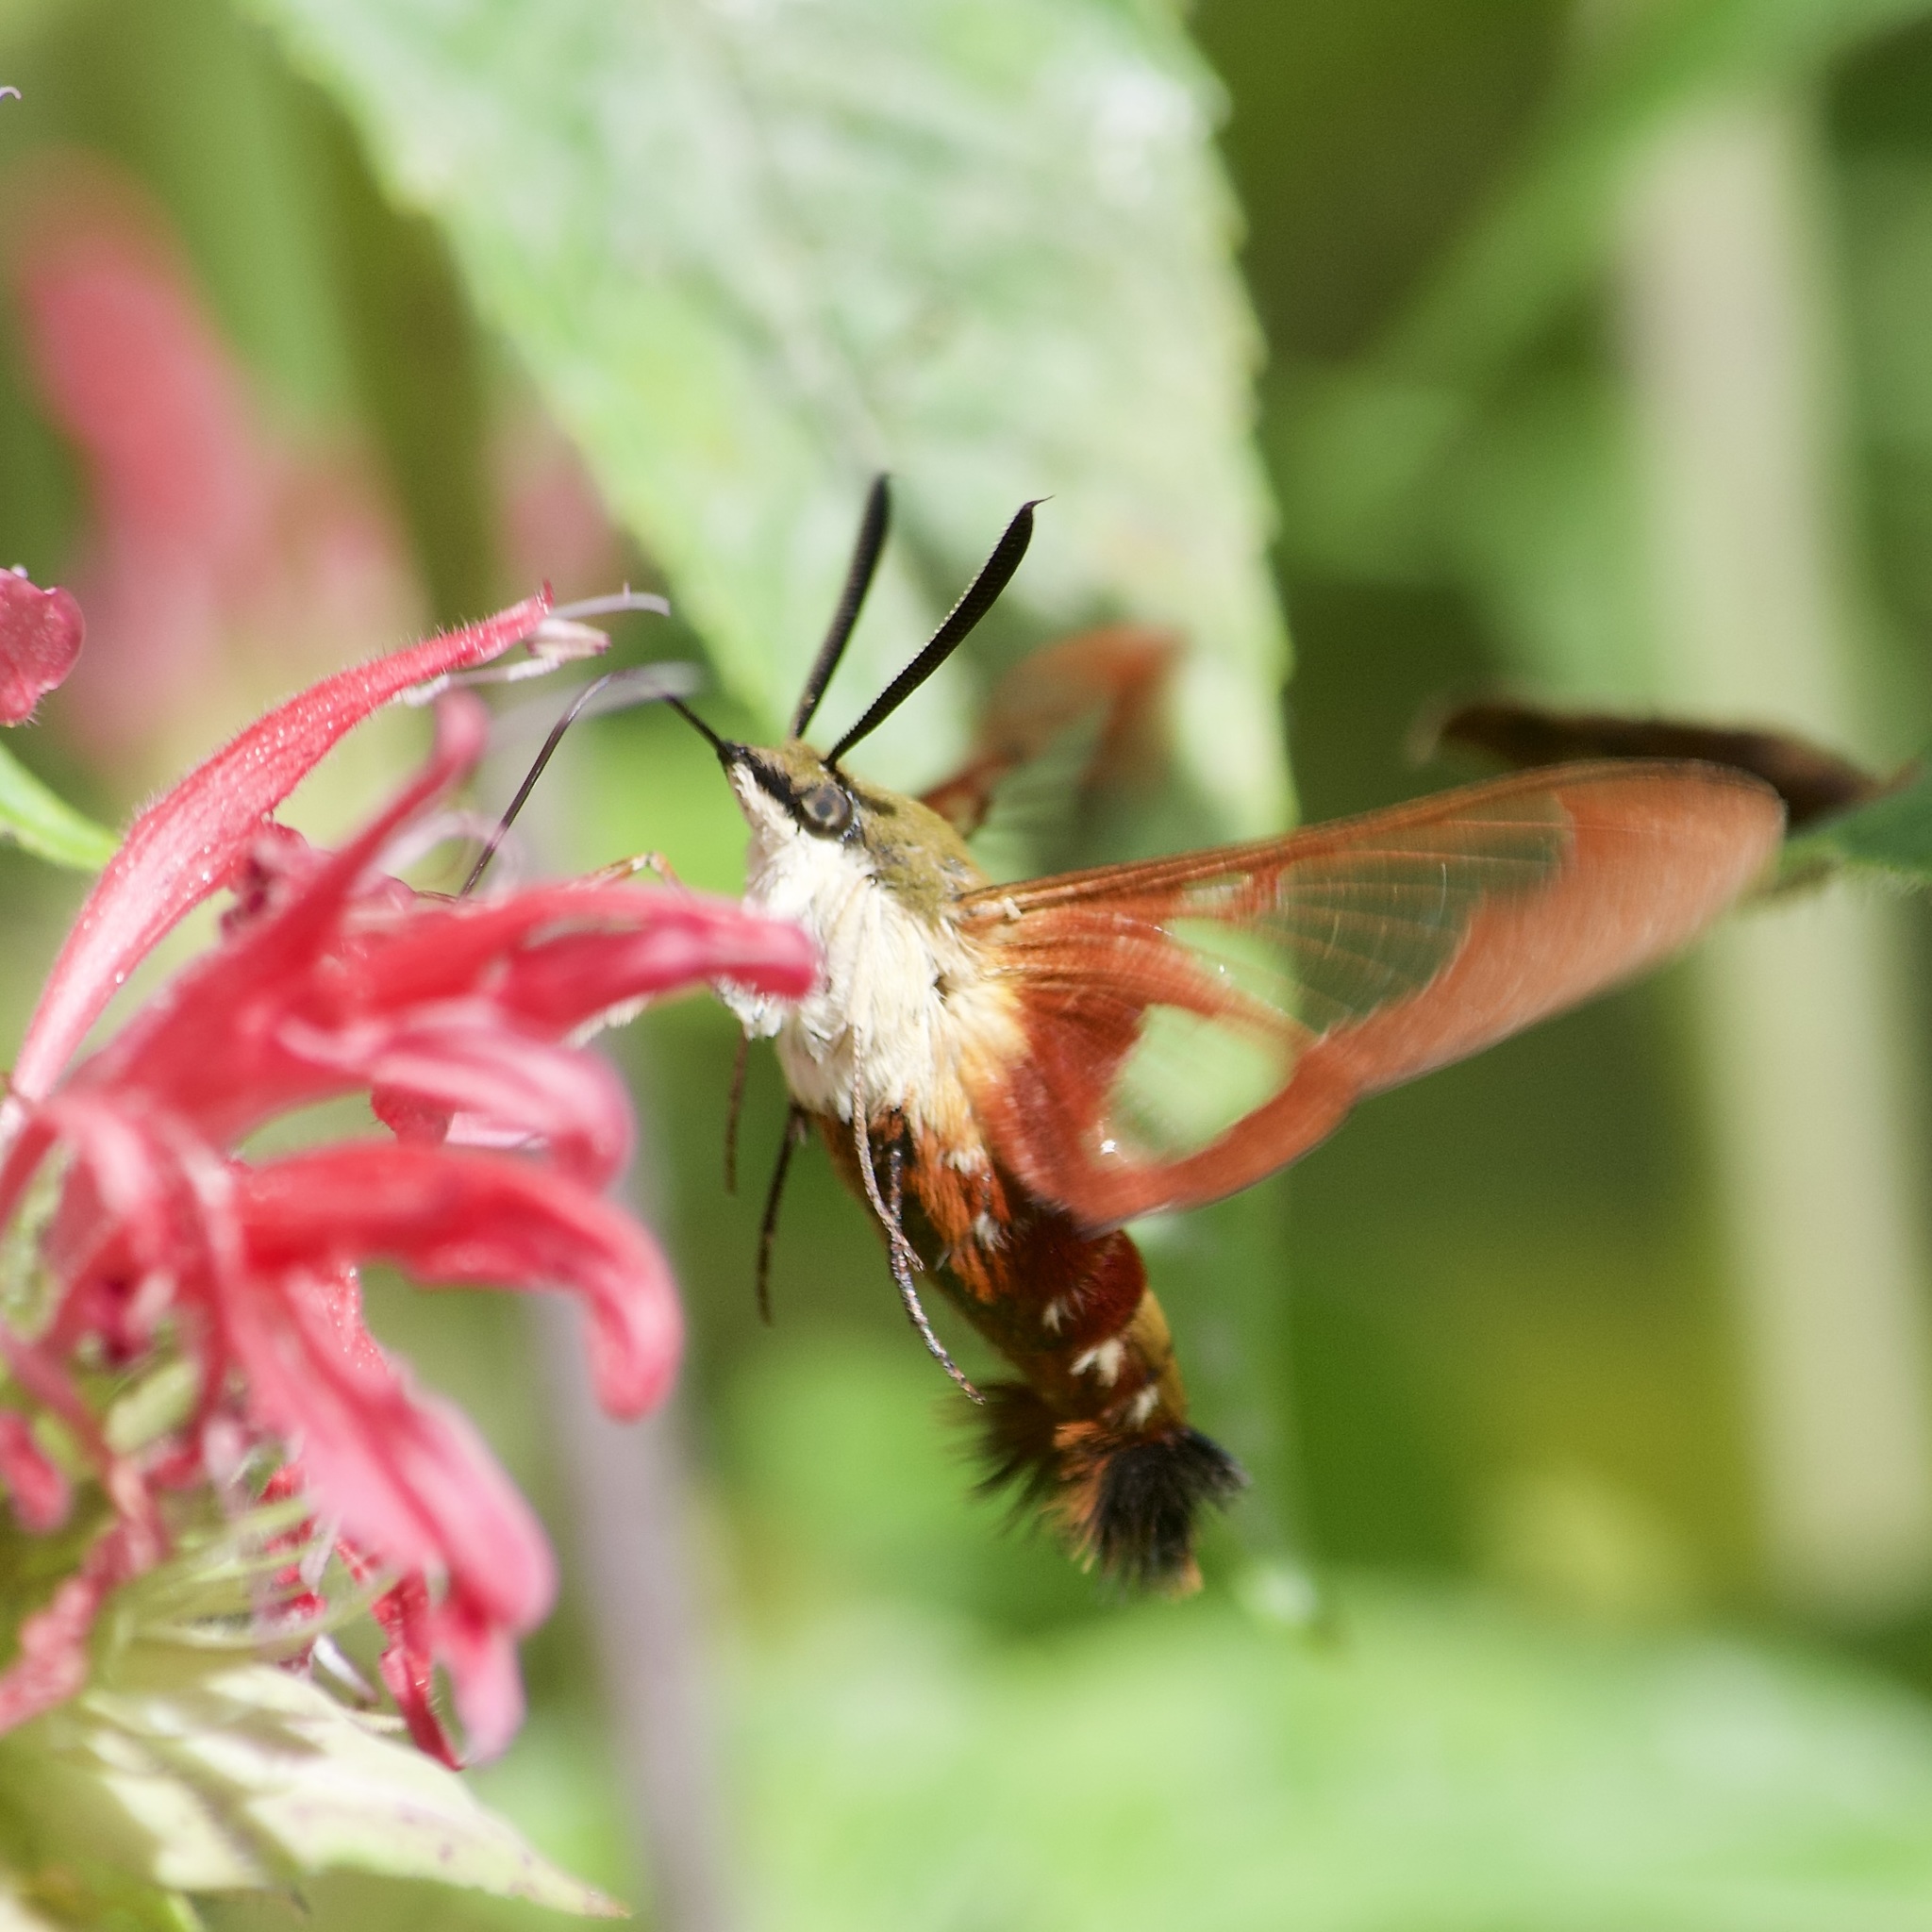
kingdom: Animalia
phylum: Arthropoda
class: Insecta
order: Lepidoptera
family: Sphingidae
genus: Hemaris
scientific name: Hemaris thysbe
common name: Common clear-wing
